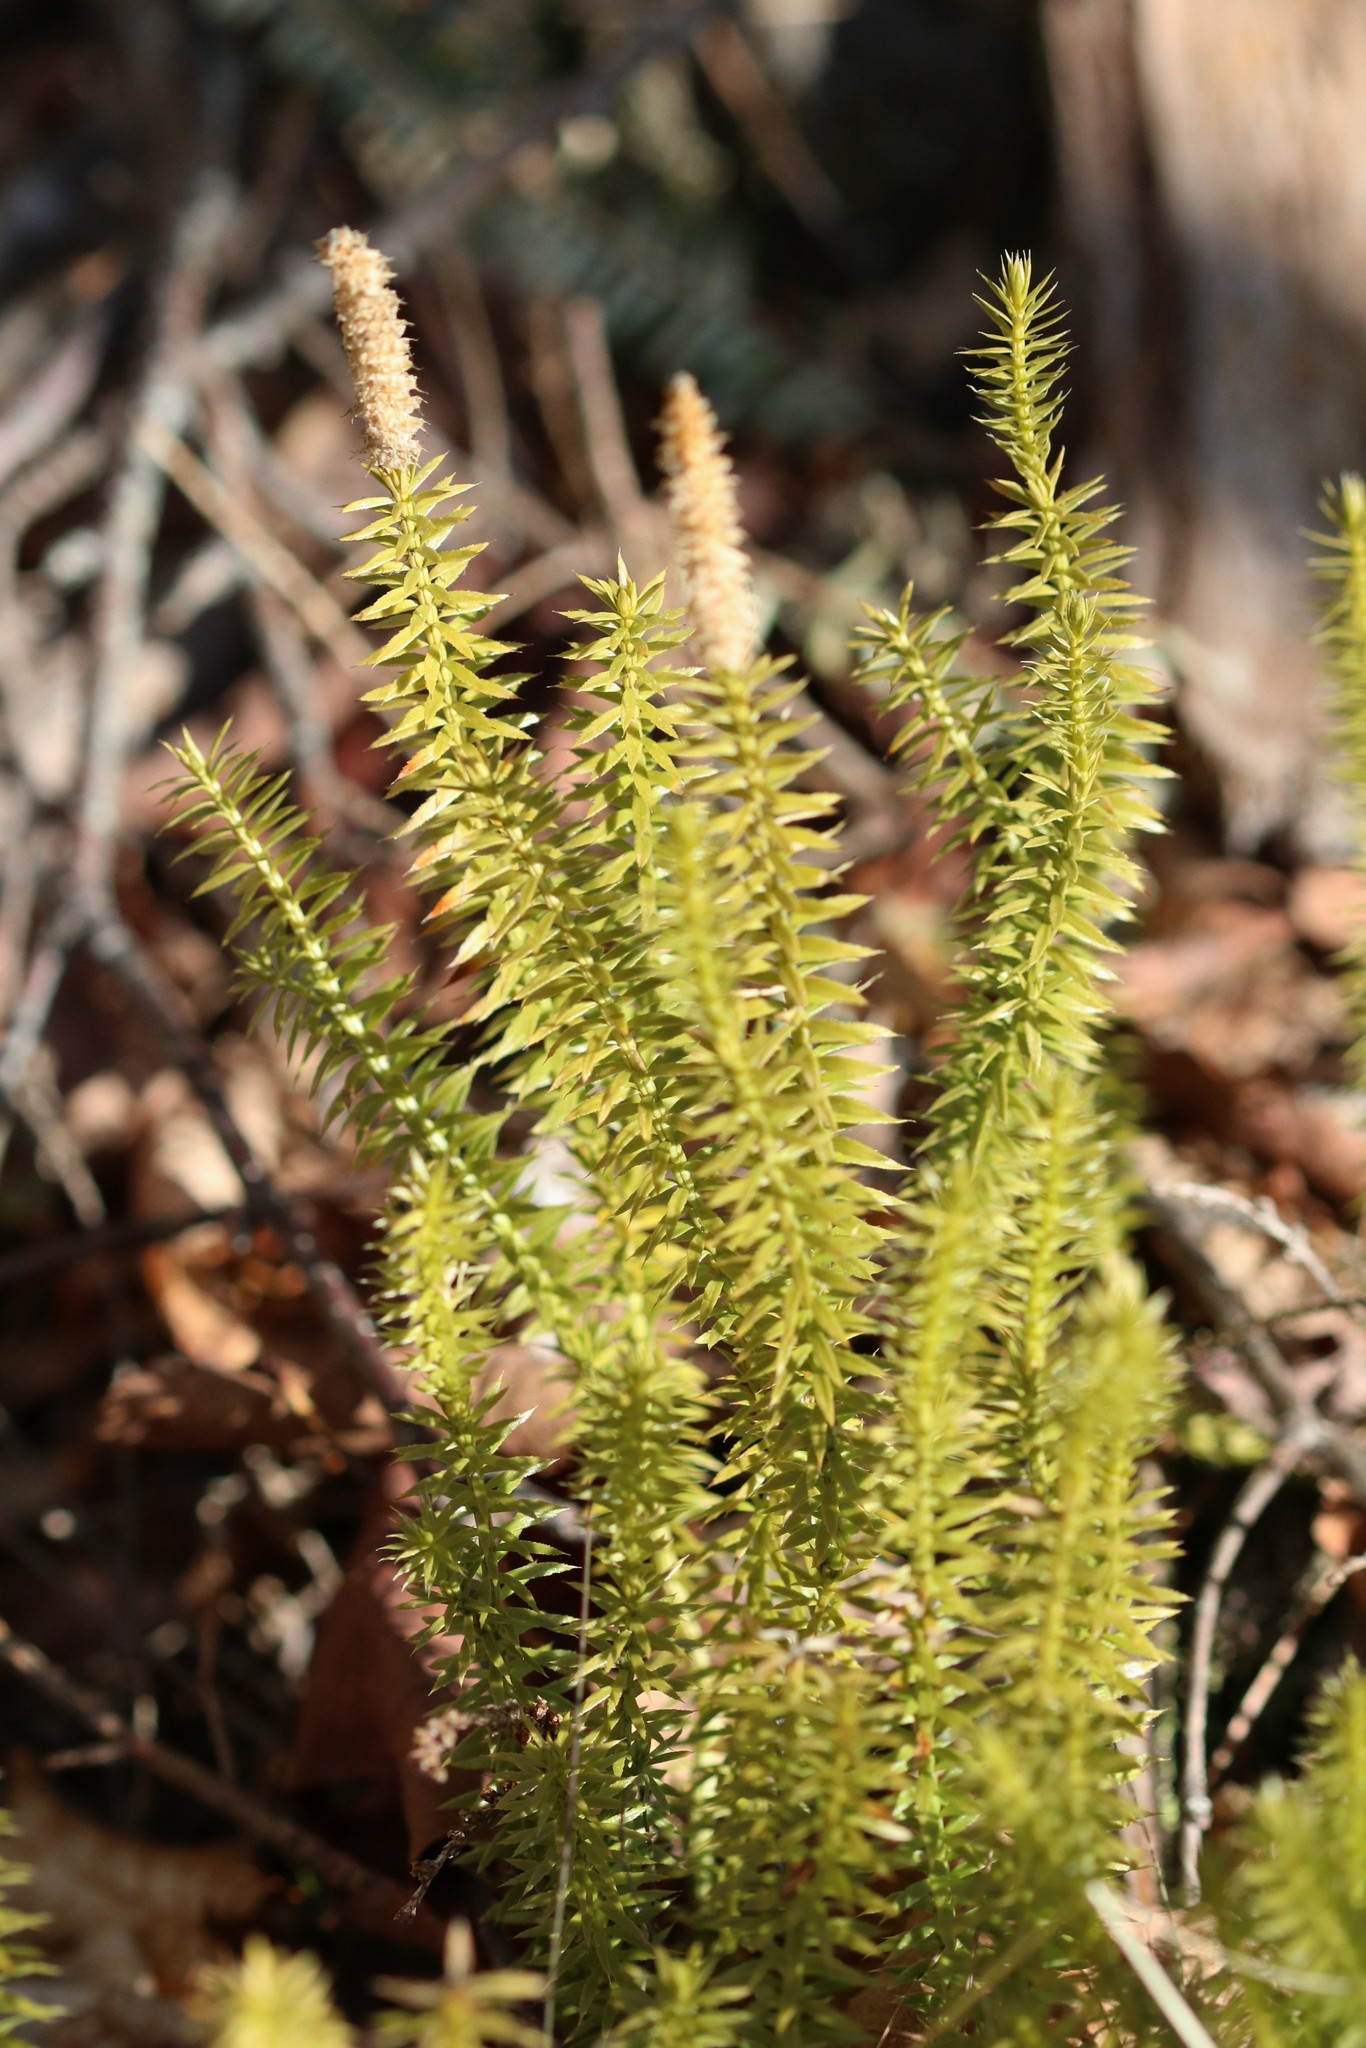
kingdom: Plantae
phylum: Tracheophyta
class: Lycopodiopsida
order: Lycopodiales
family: Lycopodiaceae
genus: Spinulum
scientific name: Spinulum annotinum
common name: Interrupted club-moss
